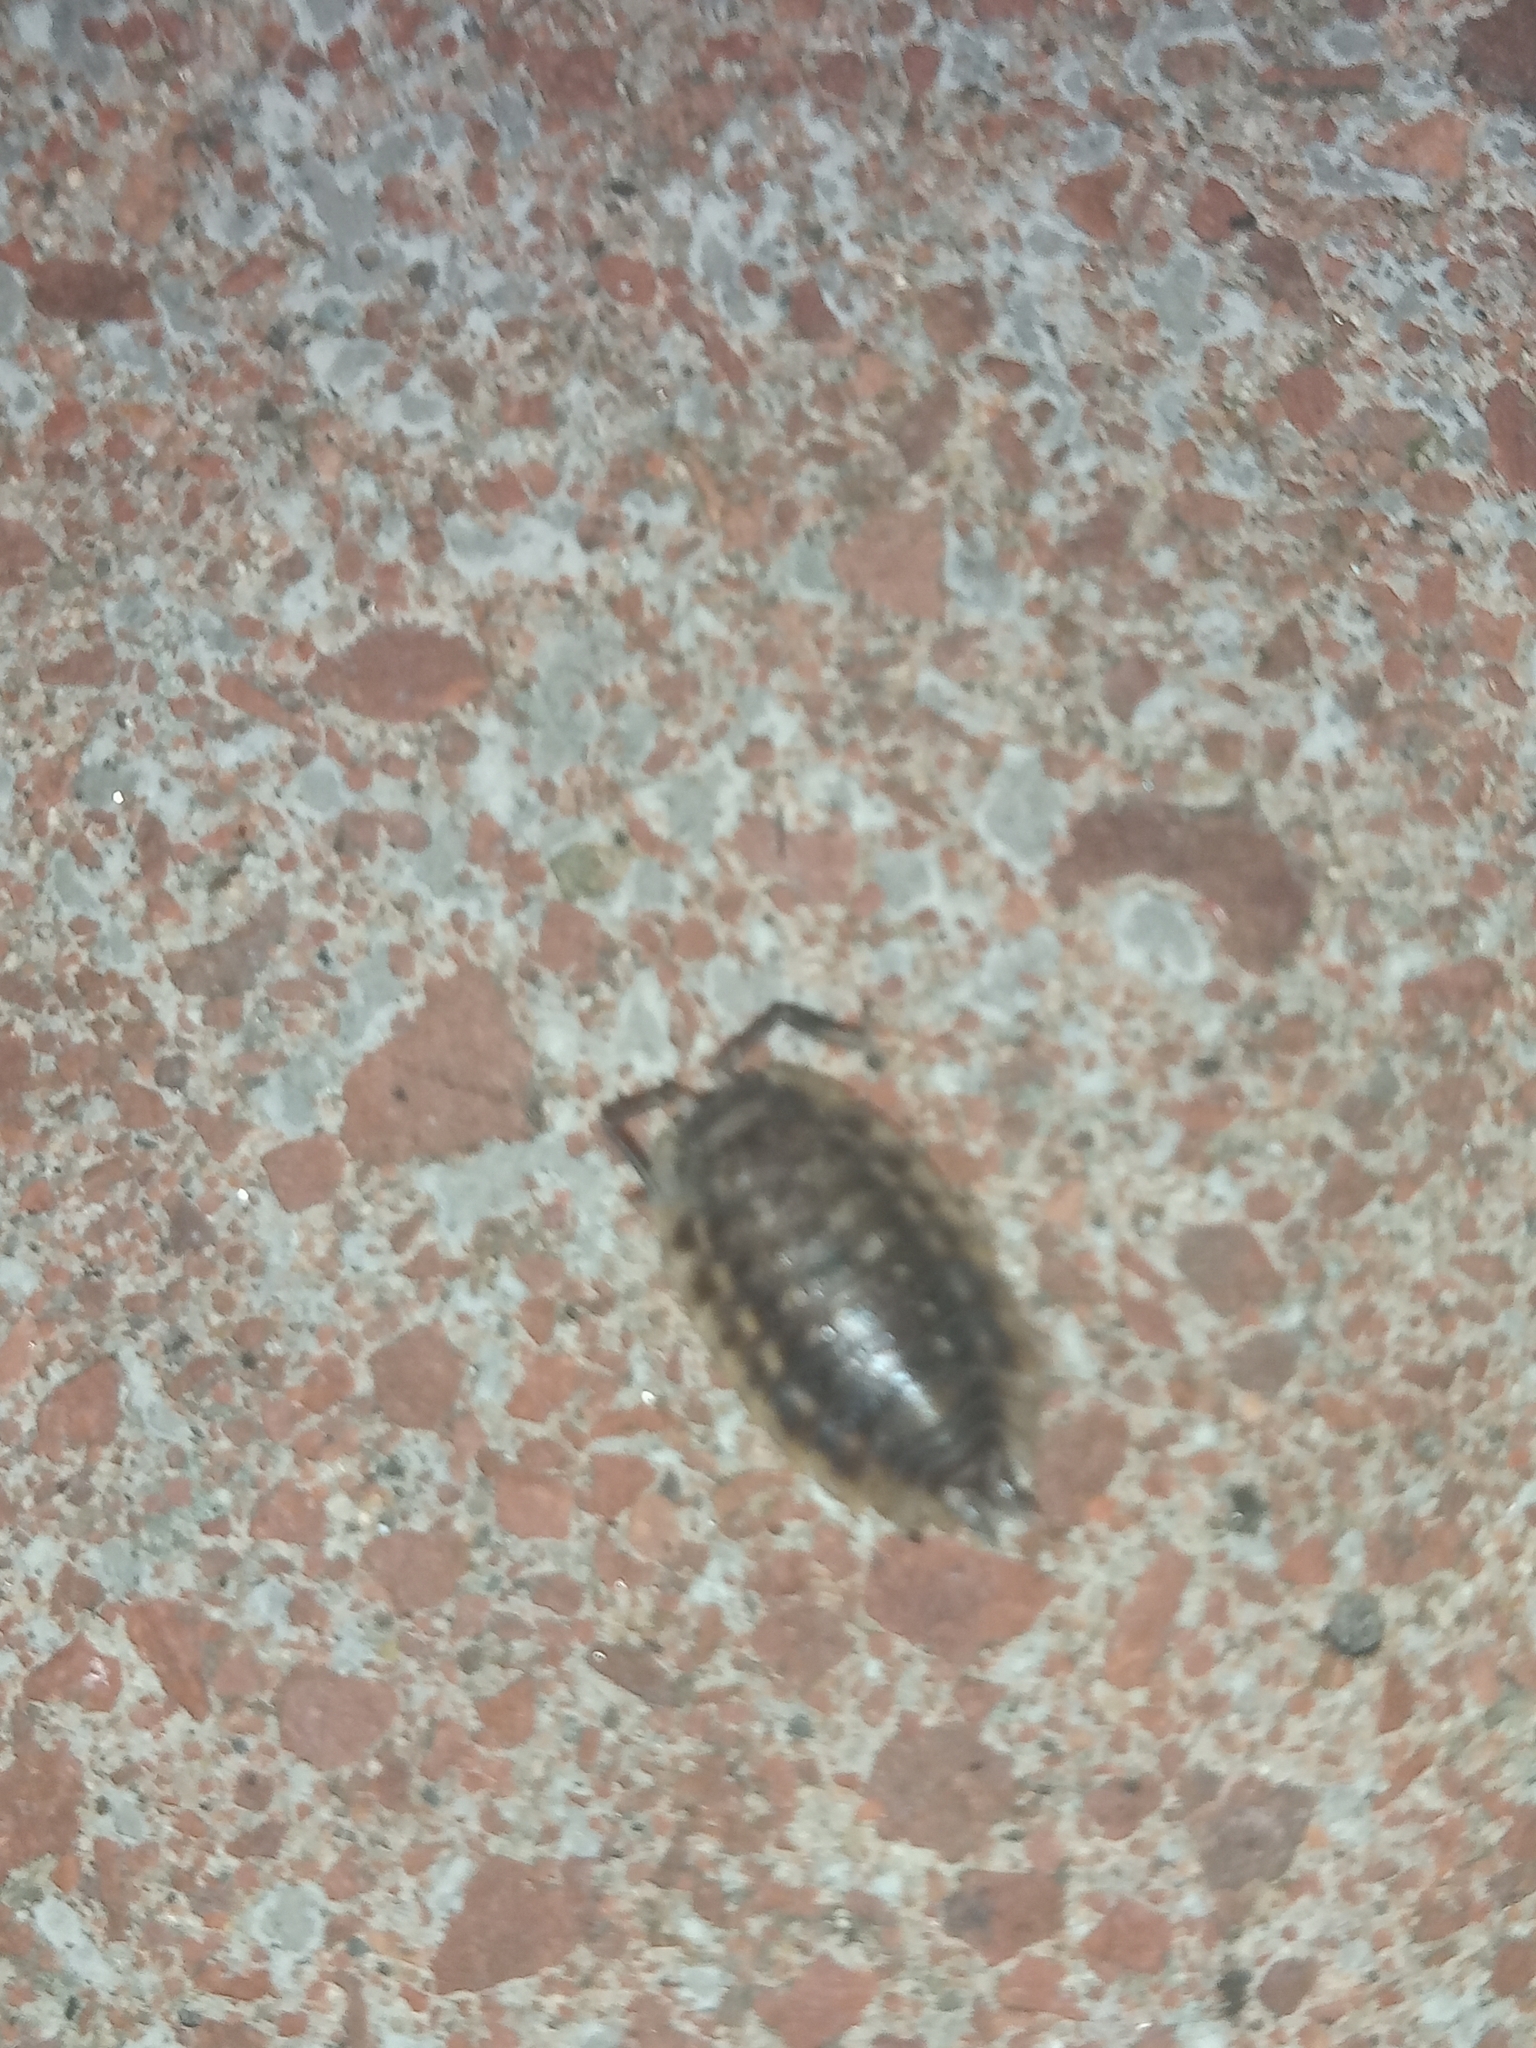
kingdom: Animalia
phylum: Arthropoda
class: Malacostraca
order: Isopoda
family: Oniscidae
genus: Oniscus
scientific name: Oniscus asellus
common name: Common shiny woodlouse
